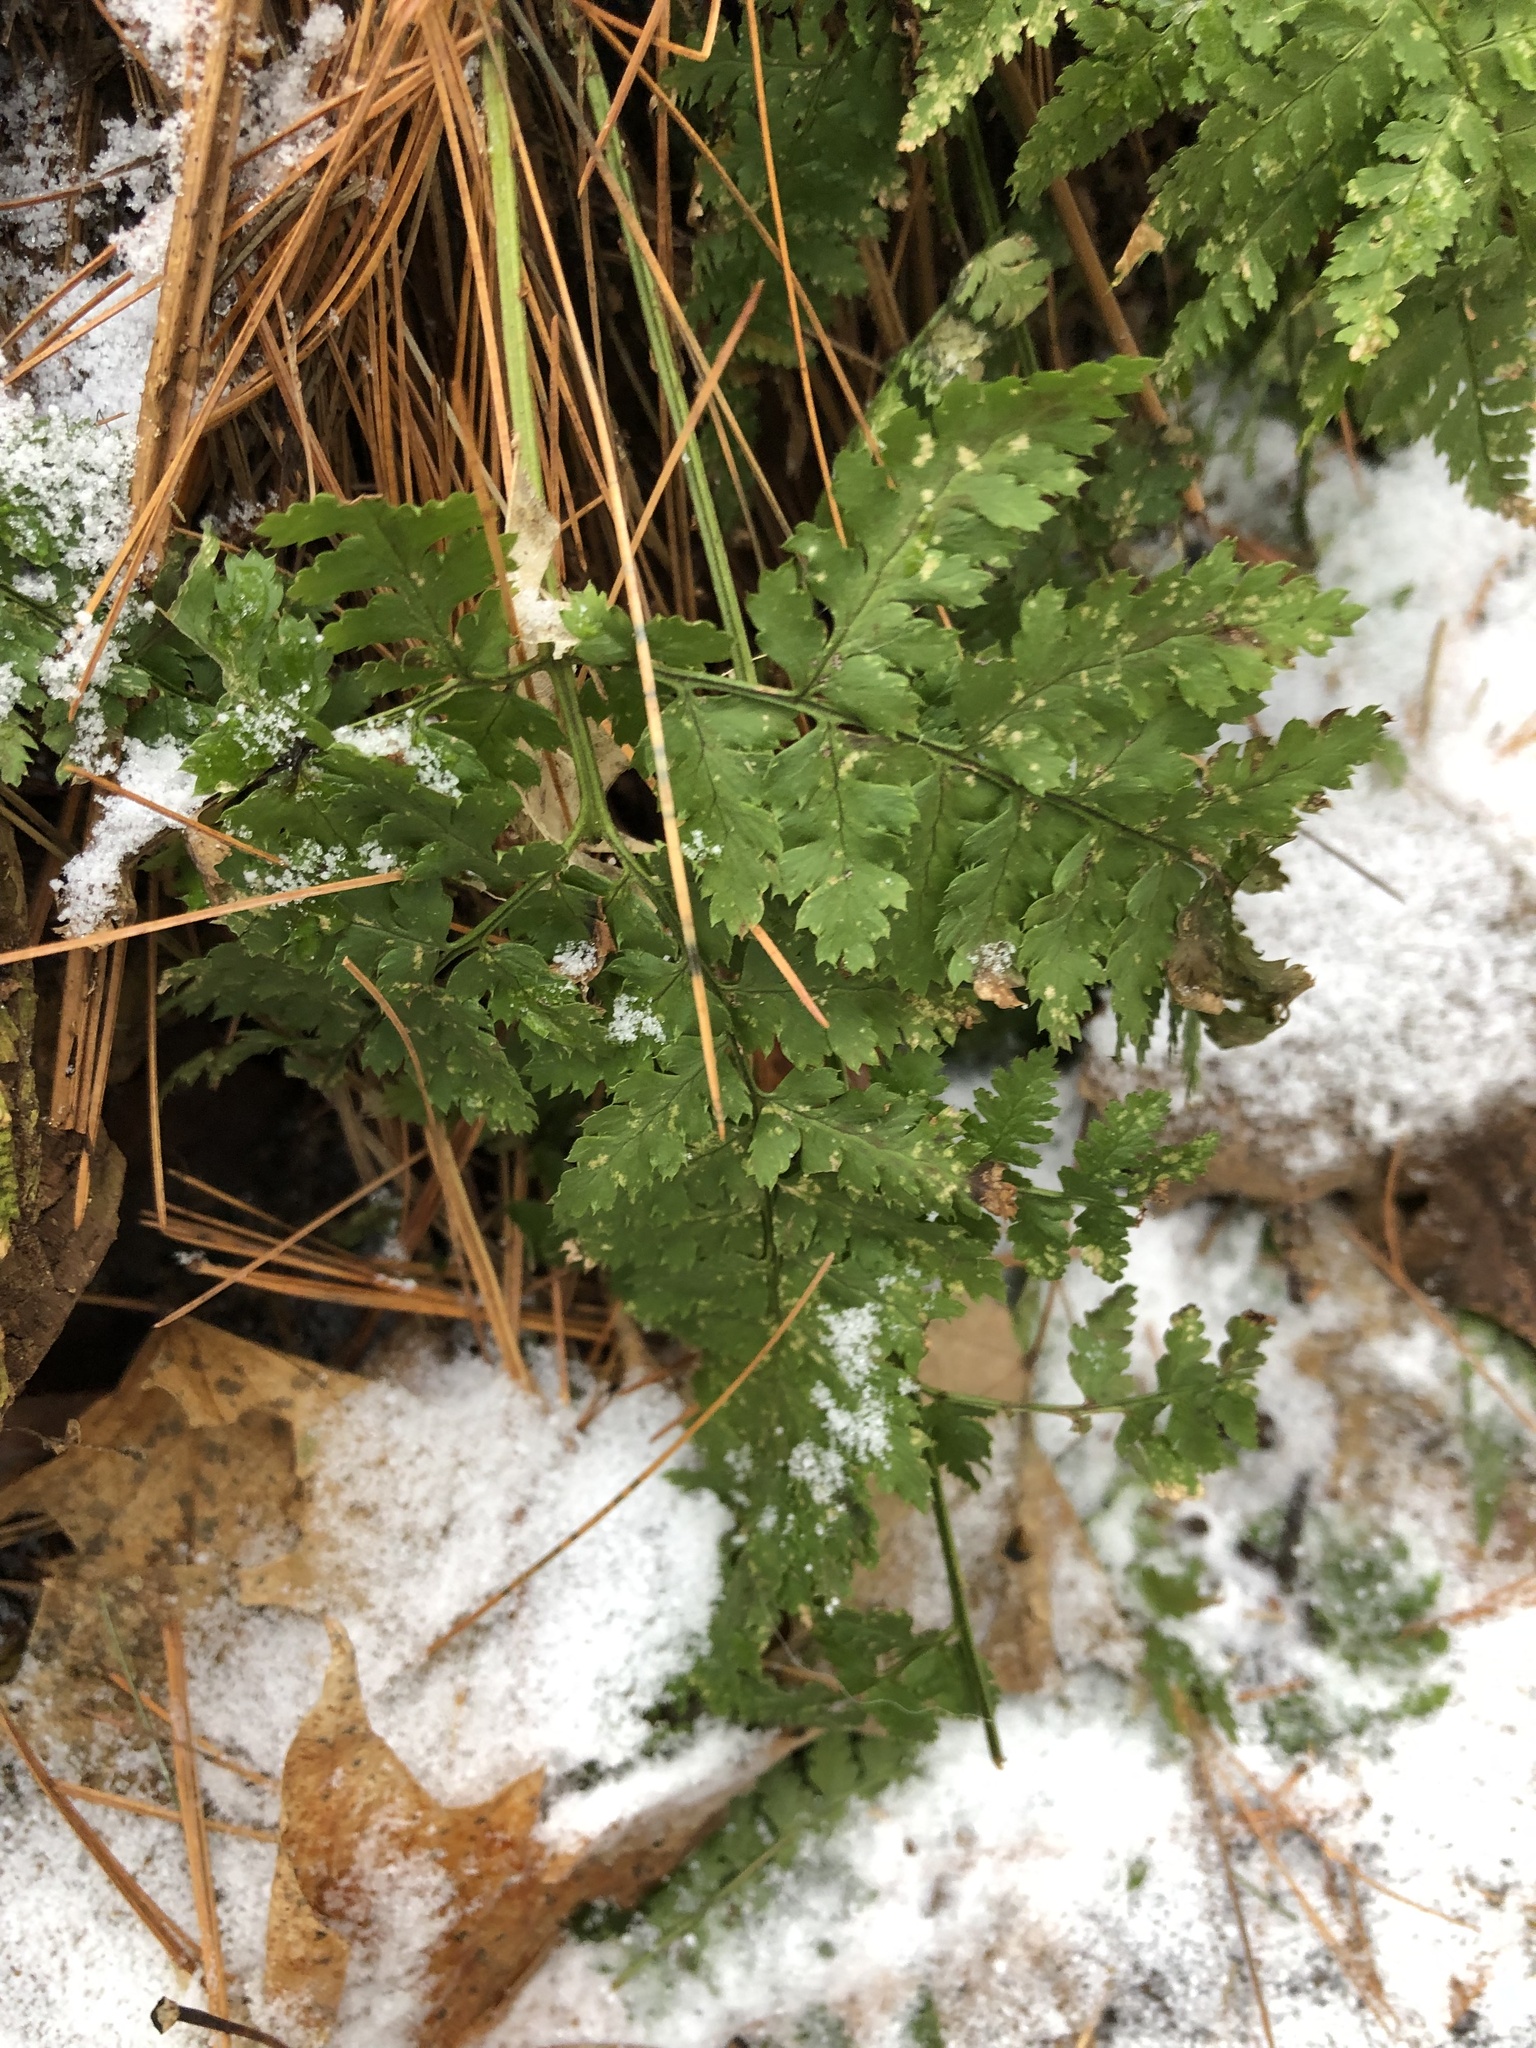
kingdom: Plantae
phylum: Tracheophyta
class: Polypodiopsida
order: Polypodiales
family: Dryopteridaceae
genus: Dryopteris
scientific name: Dryopteris intermedia
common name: Evergreen wood fern
